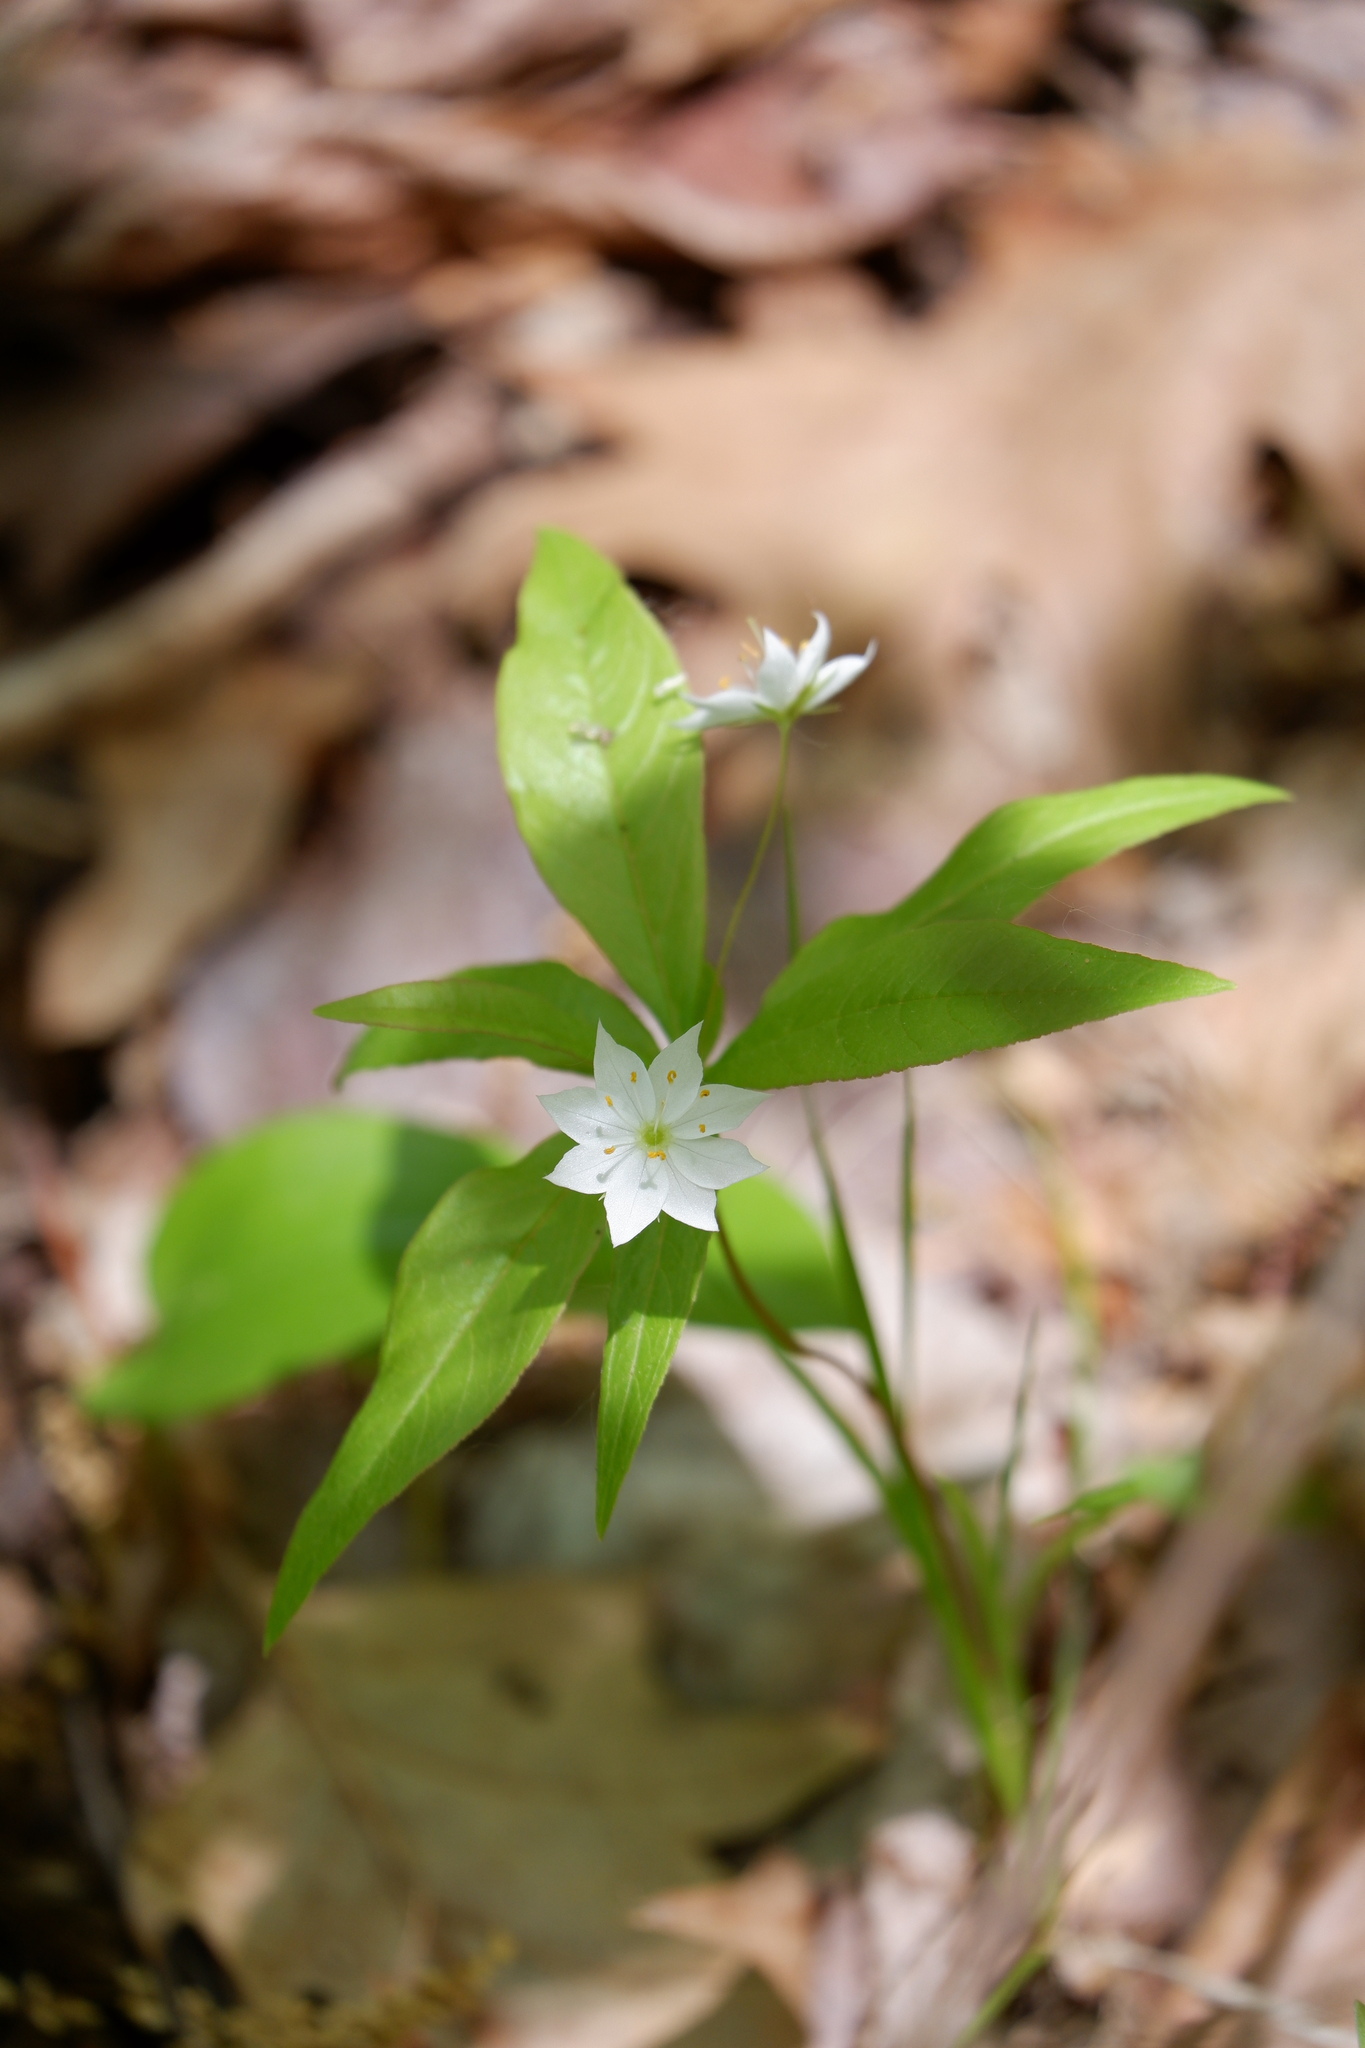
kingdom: Plantae
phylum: Tracheophyta
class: Magnoliopsida
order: Ericales
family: Primulaceae
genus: Lysimachia
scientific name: Lysimachia borealis
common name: American starflower
